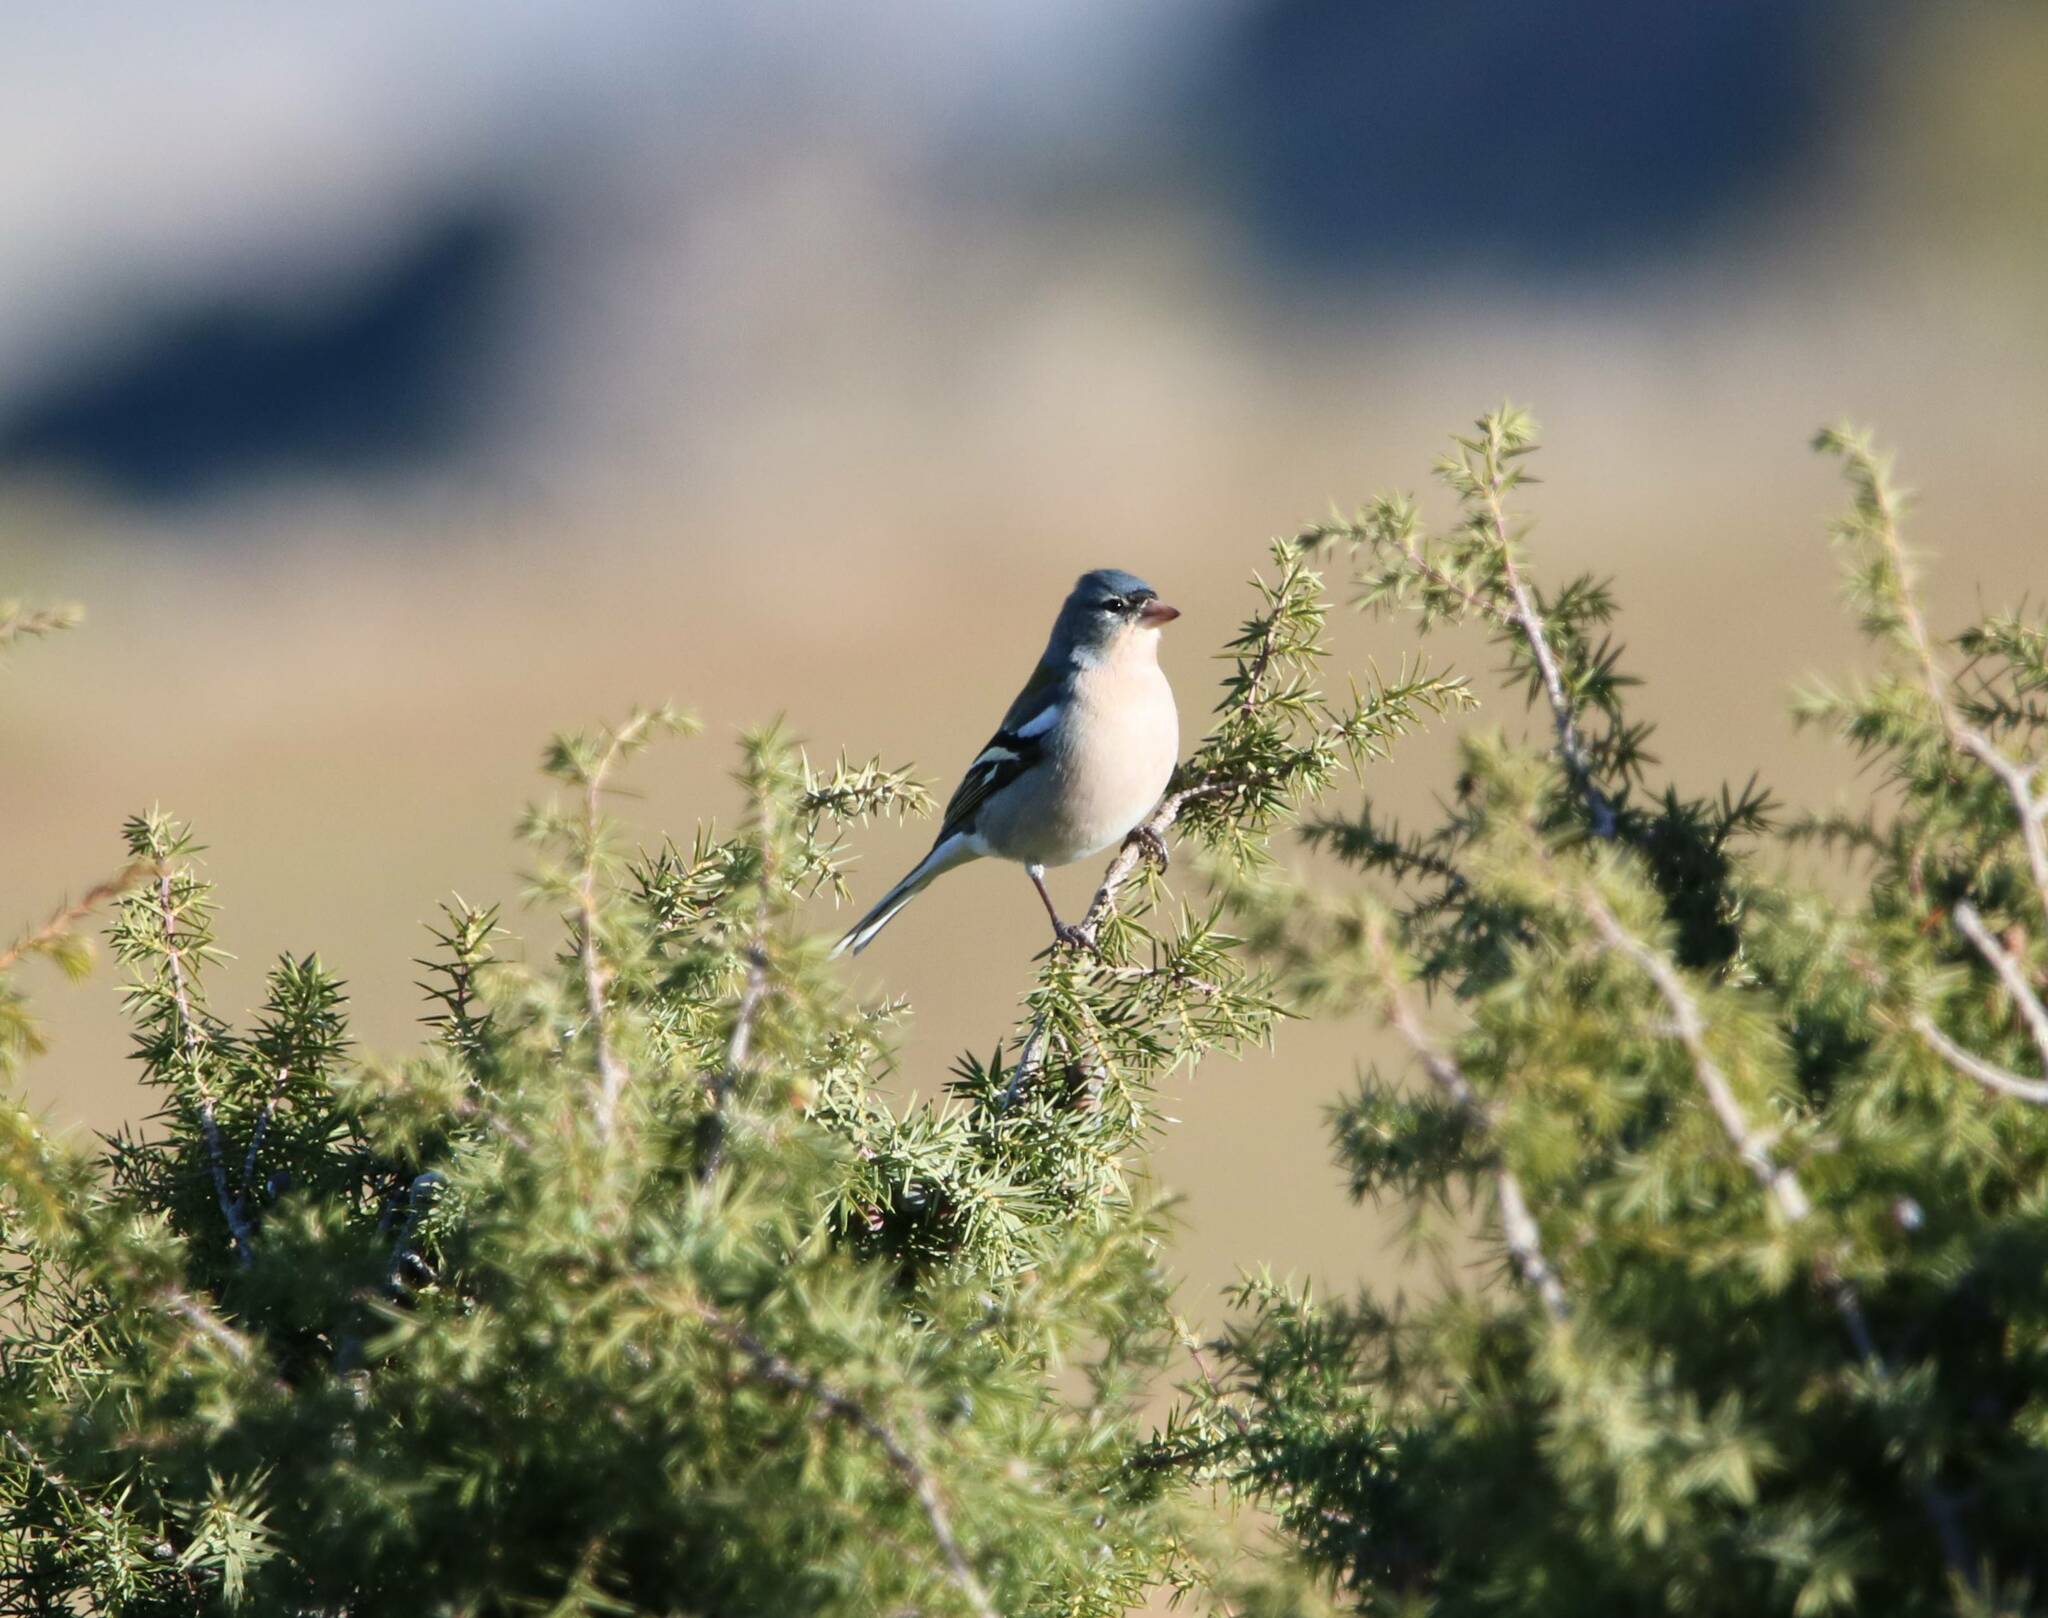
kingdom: Animalia
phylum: Chordata
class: Aves
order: Passeriformes
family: Fringillidae
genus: Fringilla
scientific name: Fringilla spodiogenys
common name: African chaffinch
